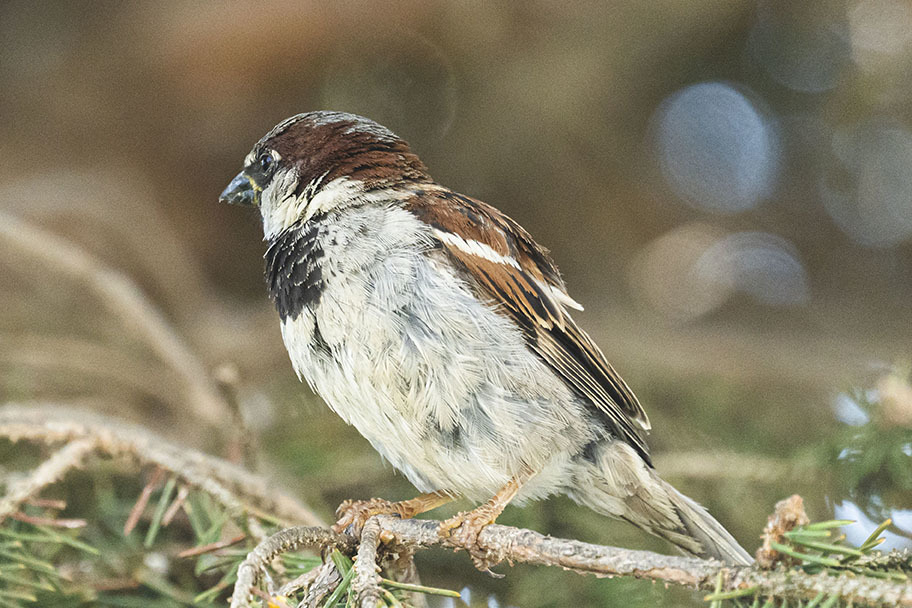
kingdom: Animalia
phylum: Chordata
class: Aves
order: Passeriformes
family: Passeridae
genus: Passer
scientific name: Passer domesticus
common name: House sparrow
